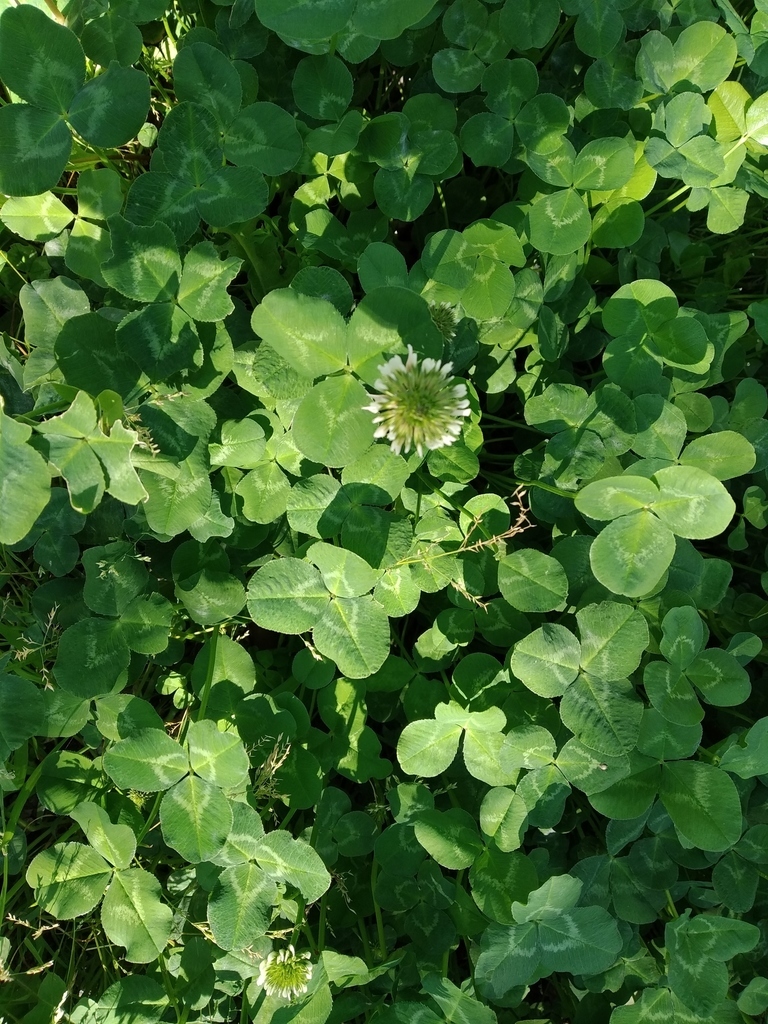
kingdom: Plantae
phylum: Tracheophyta
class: Magnoliopsida
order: Fabales
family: Fabaceae
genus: Trifolium
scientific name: Trifolium repens
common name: White clover
